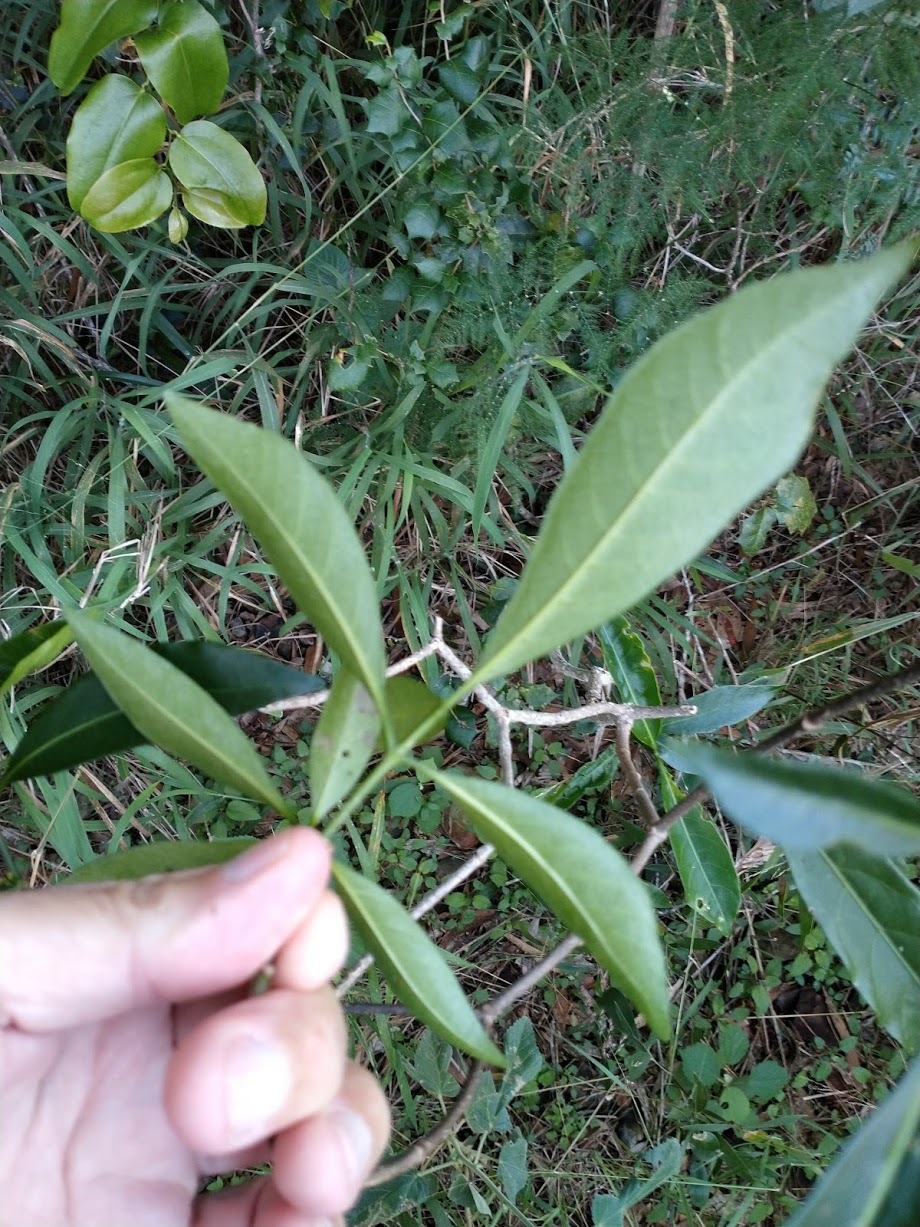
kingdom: Plantae
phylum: Tracheophyta
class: Magnoliopsida
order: Gentianales
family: Apocynaceae
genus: Tabernaemontana
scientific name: Tabernaemontana pandacaqui
